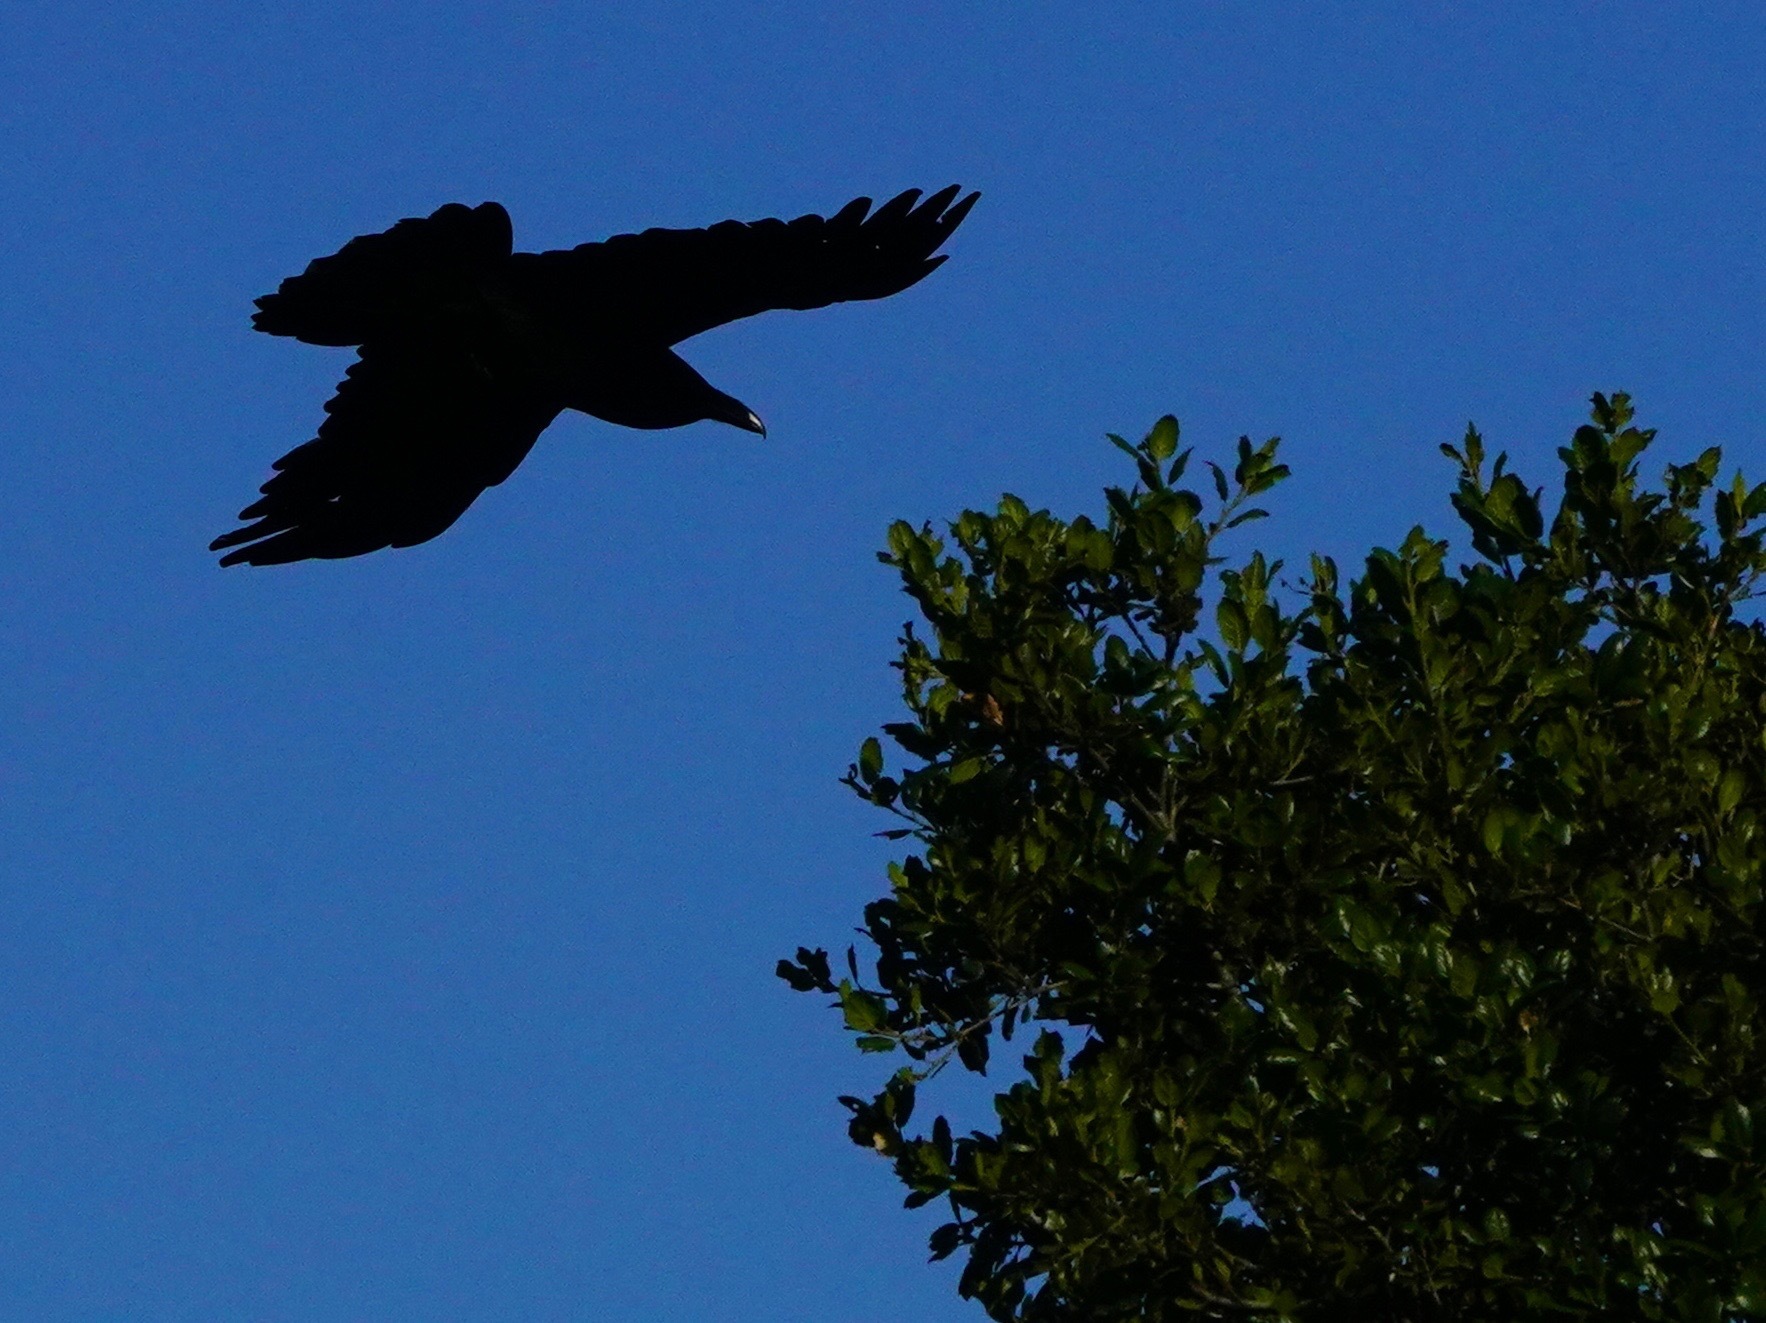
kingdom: Animalia
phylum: Chordata
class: Aves
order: Passeriformes
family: Corvidae
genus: Corvus
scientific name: Corvus corax
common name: Common raven
